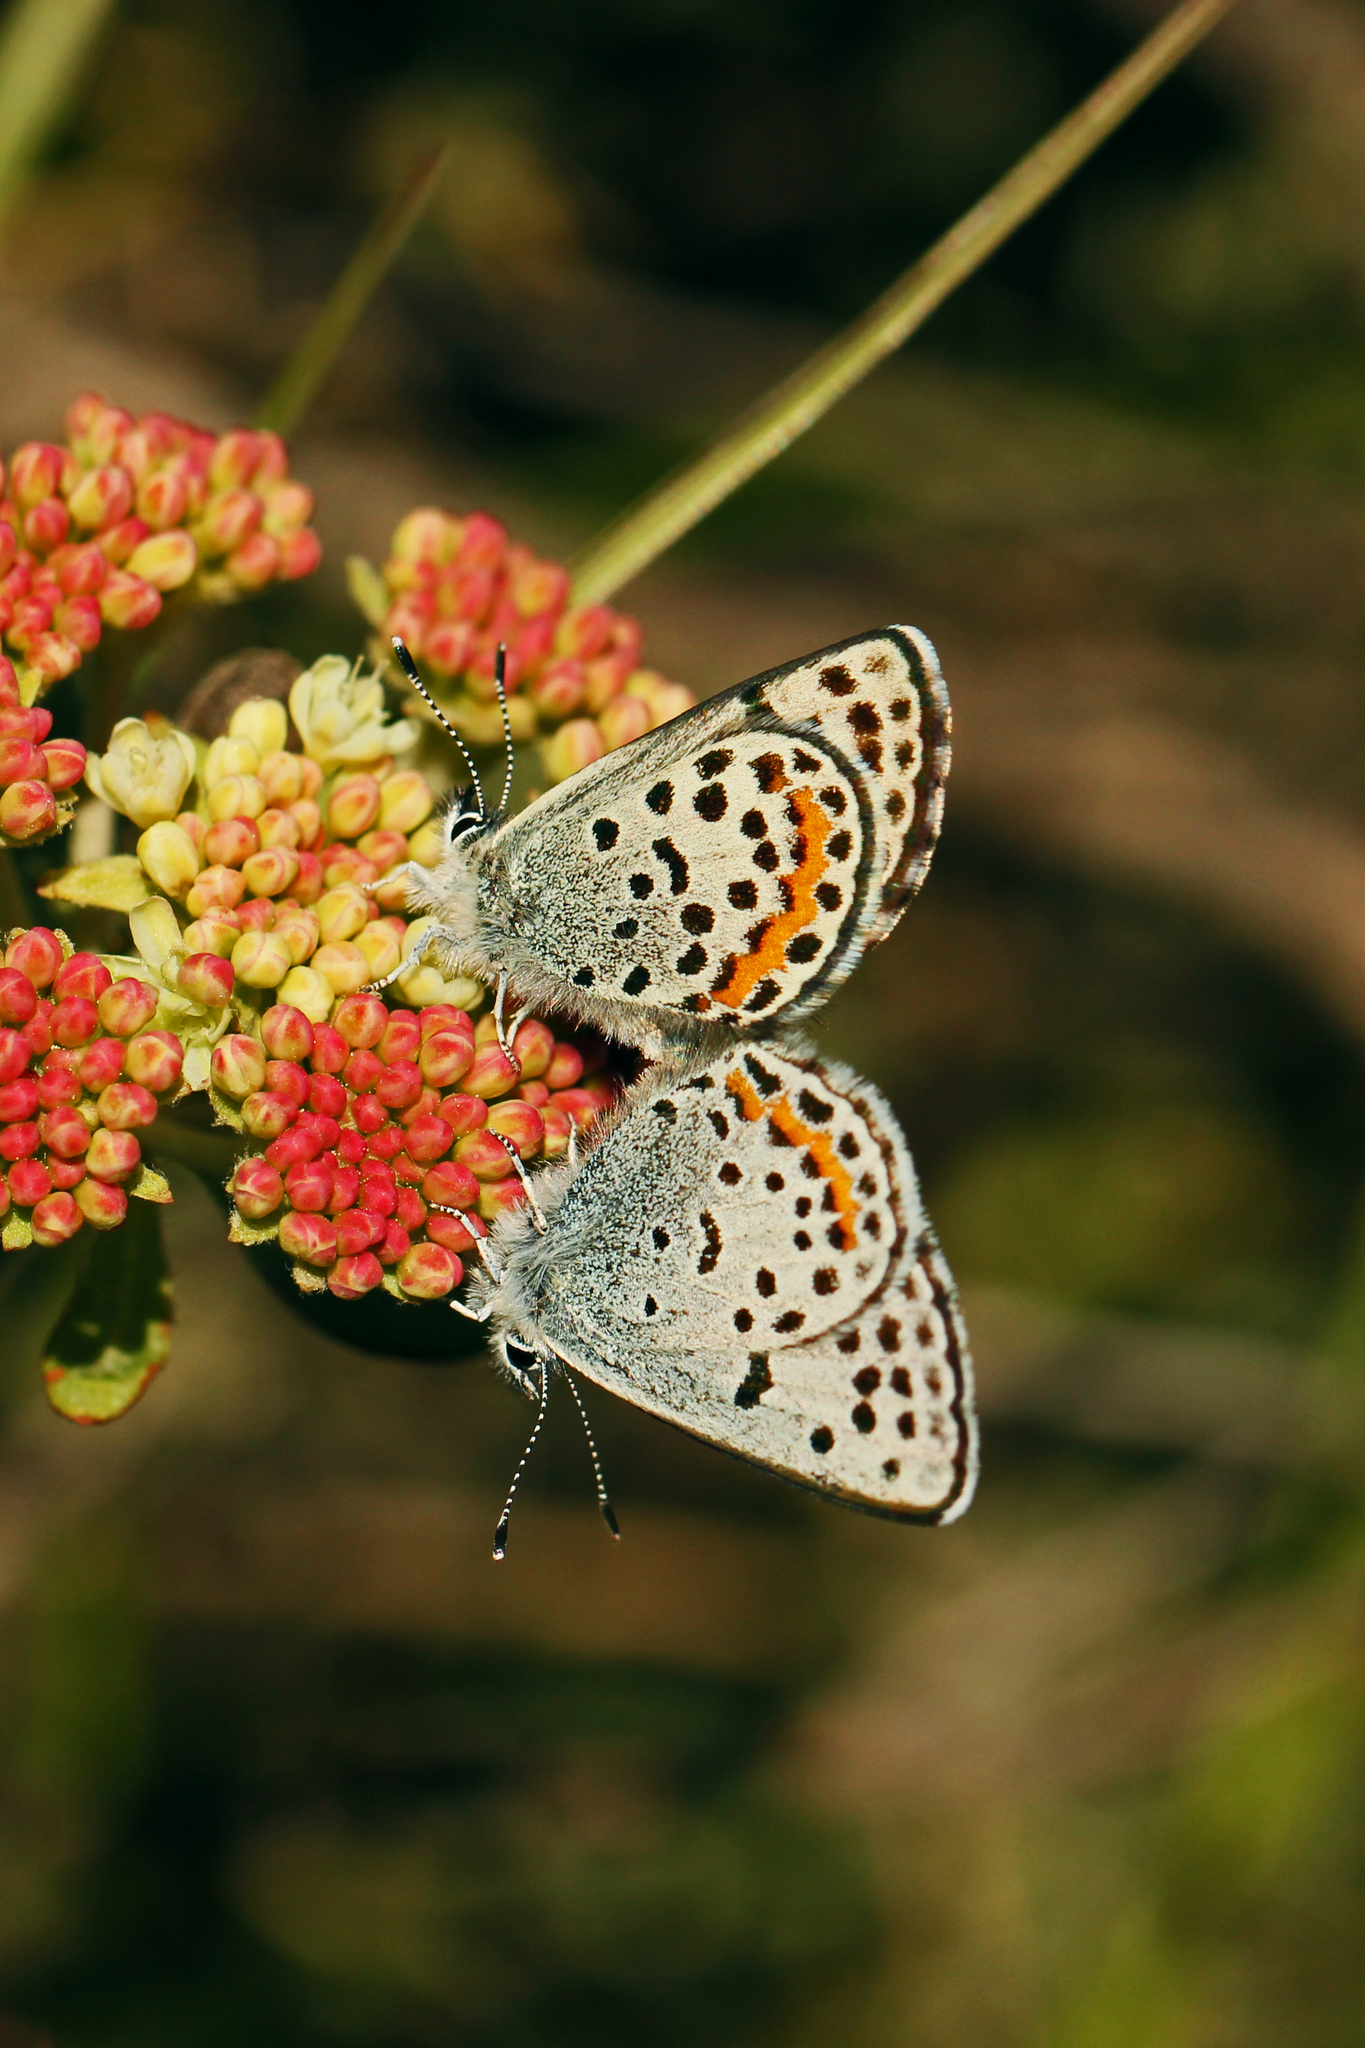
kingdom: Animalia
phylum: Arthropoda
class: Insecta
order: Lepidoptera
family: Lycaenidae
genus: Euphilotes
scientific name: Euphilotes enoptes
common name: Dotted blue
